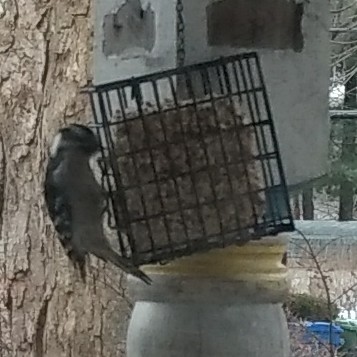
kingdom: Animalia
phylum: Chordata
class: Aves
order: Piciformes
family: Picidae
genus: Dryobates
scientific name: Dryobates pubescens
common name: Downy woodpecker
